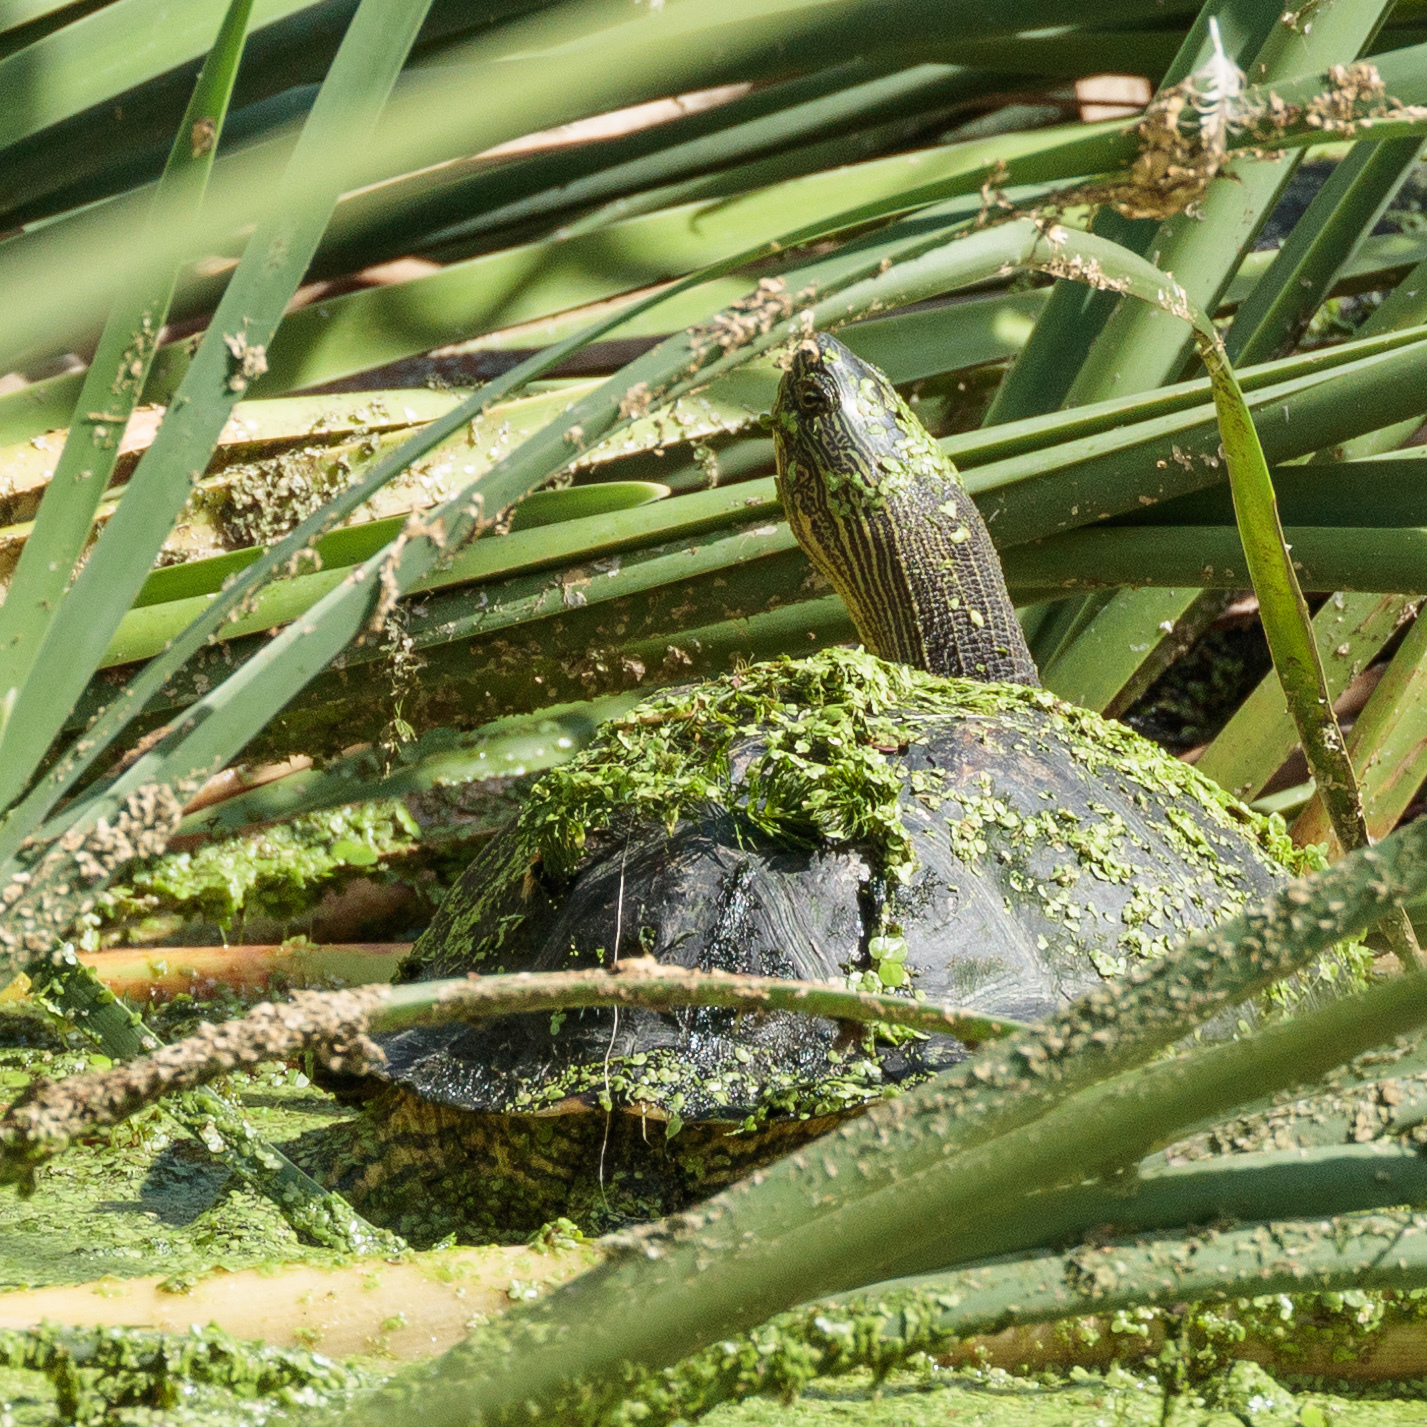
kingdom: Animalia
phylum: Chordata
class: Testudines
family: Geoemydidae
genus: Mauremys
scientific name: Mauremys sinensis
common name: Chinese stripe-necked turtle
